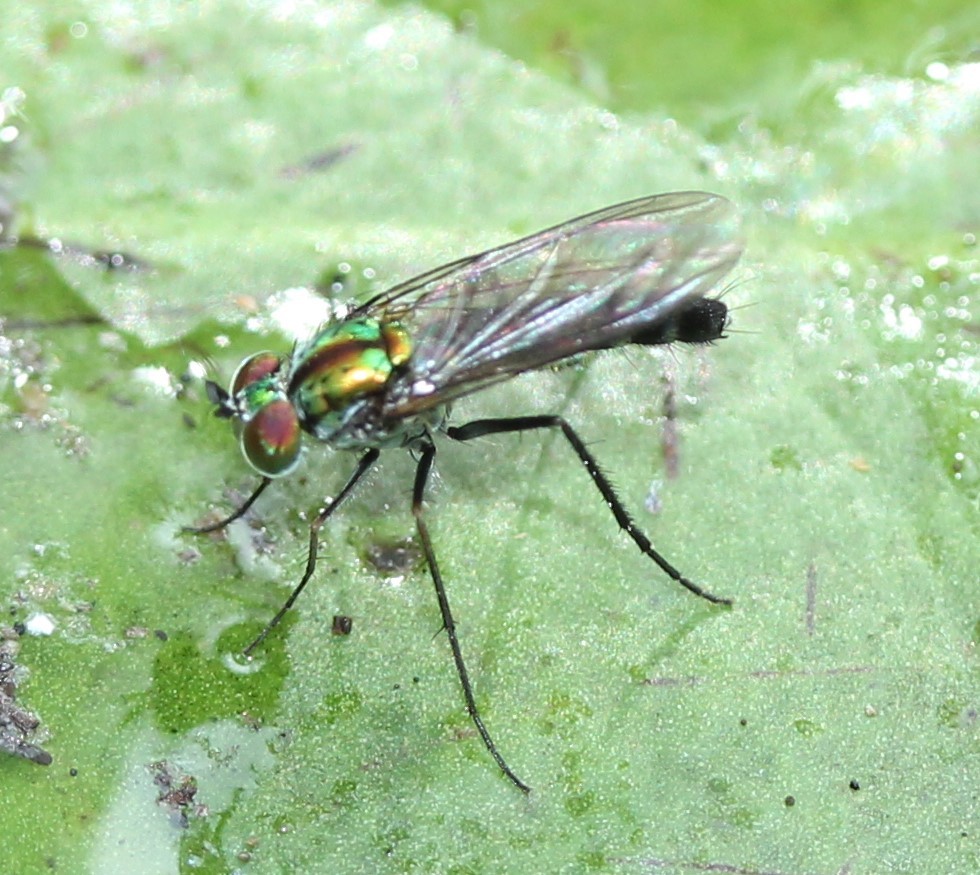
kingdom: Animalia
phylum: Arthropoda
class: Insecta
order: Diptera
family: Dolichopodidae
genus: Plagioneurus
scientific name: Plagioneurus univittatus
